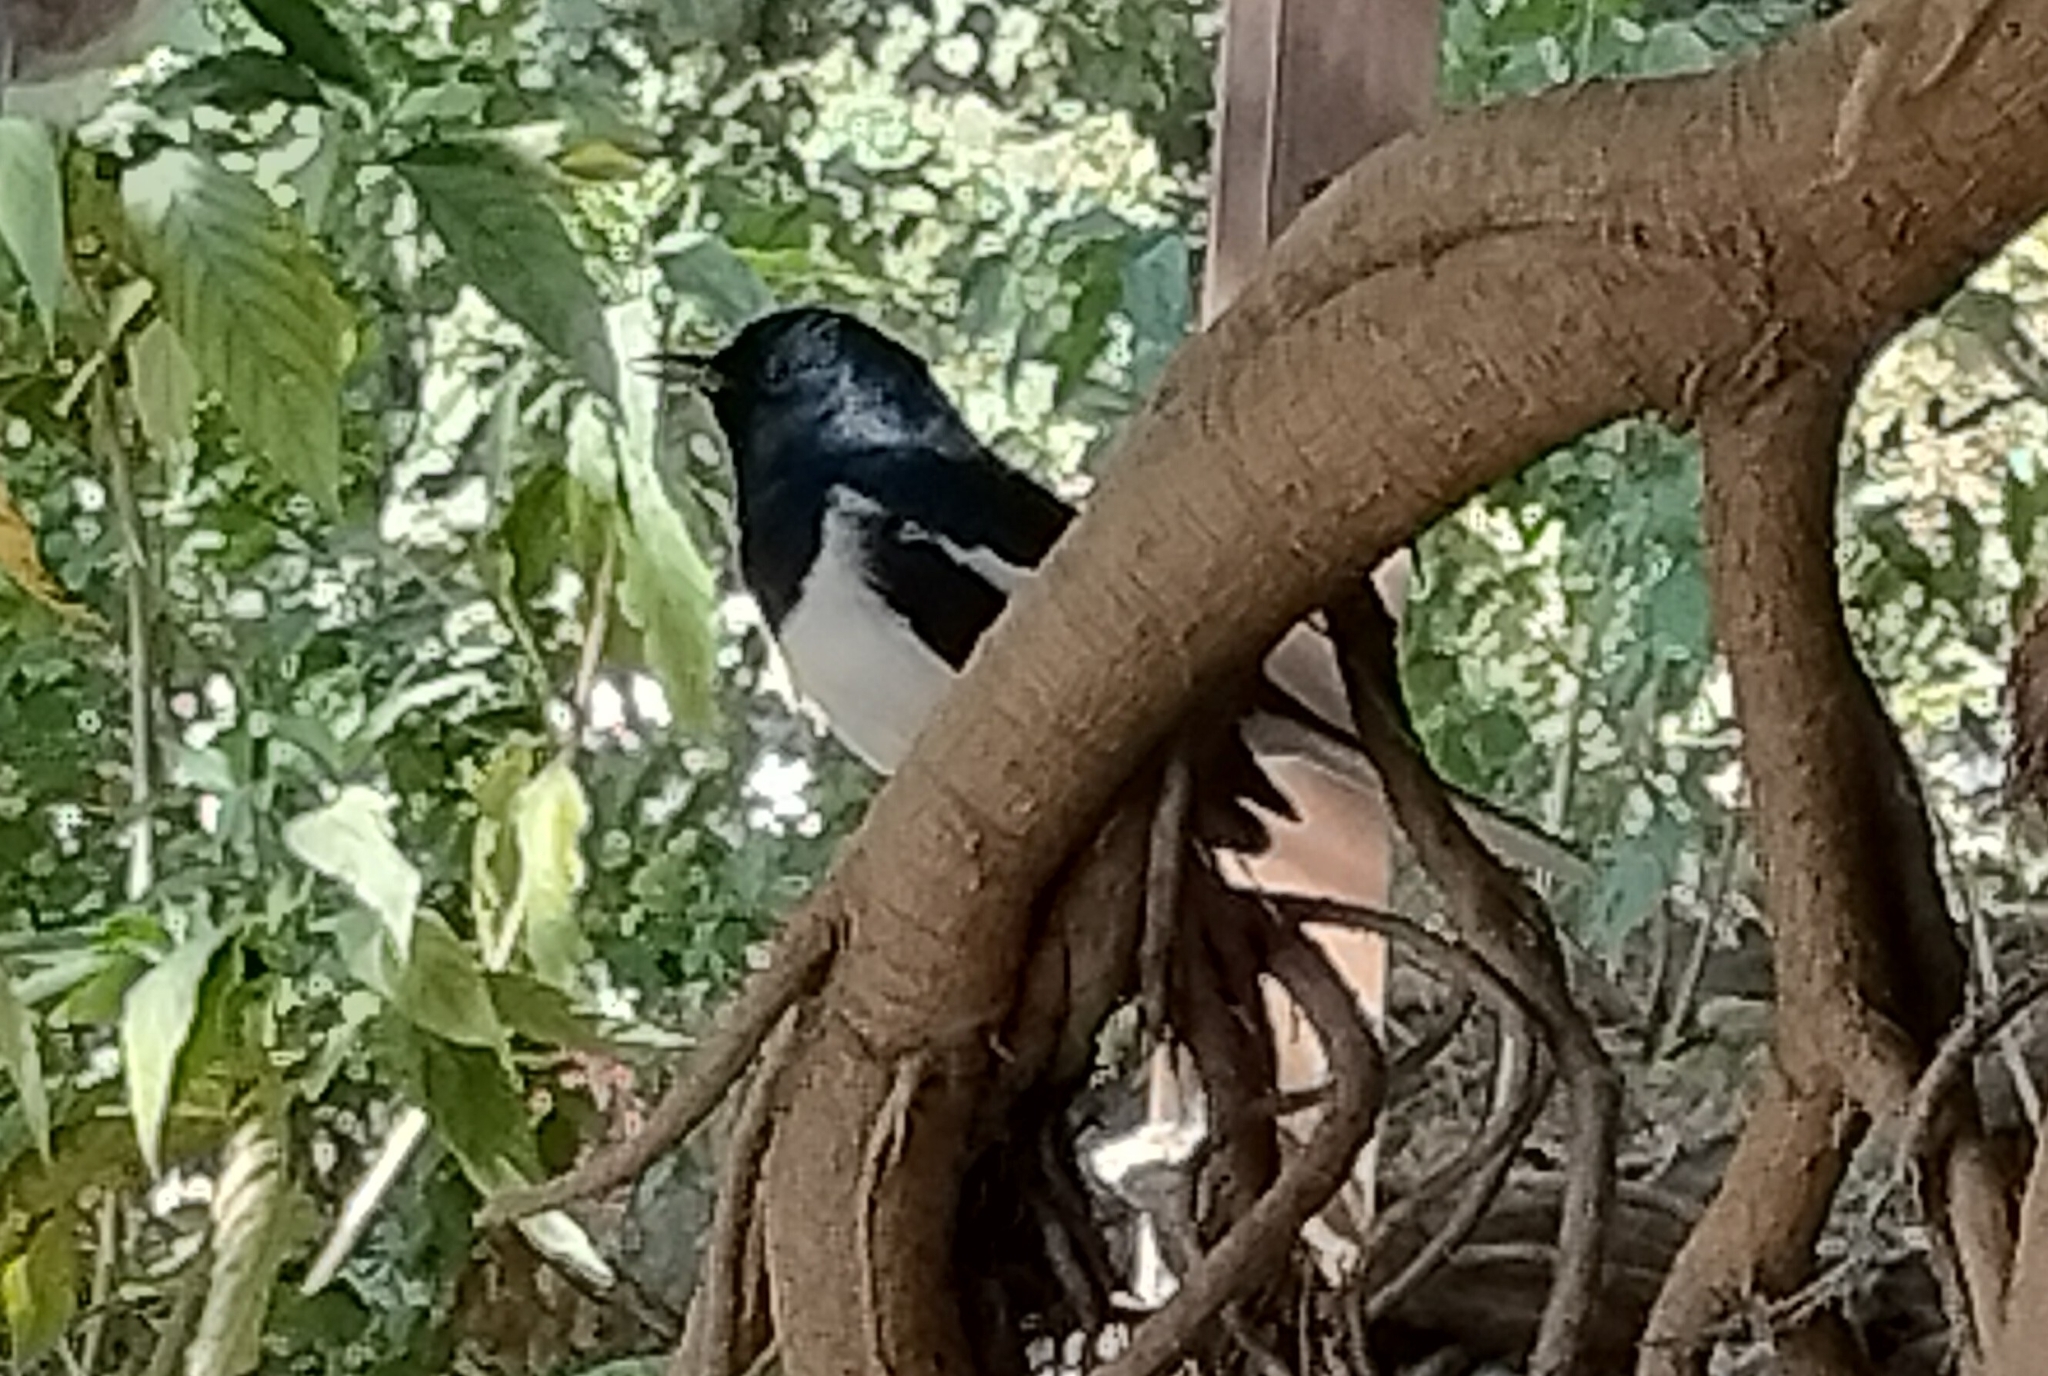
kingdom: Animalia
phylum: Chordata
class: Aves
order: Passeriformes
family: Muscicapidae
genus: Copsychus
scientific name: Copsychus saularis
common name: Oriental magpie-robin
